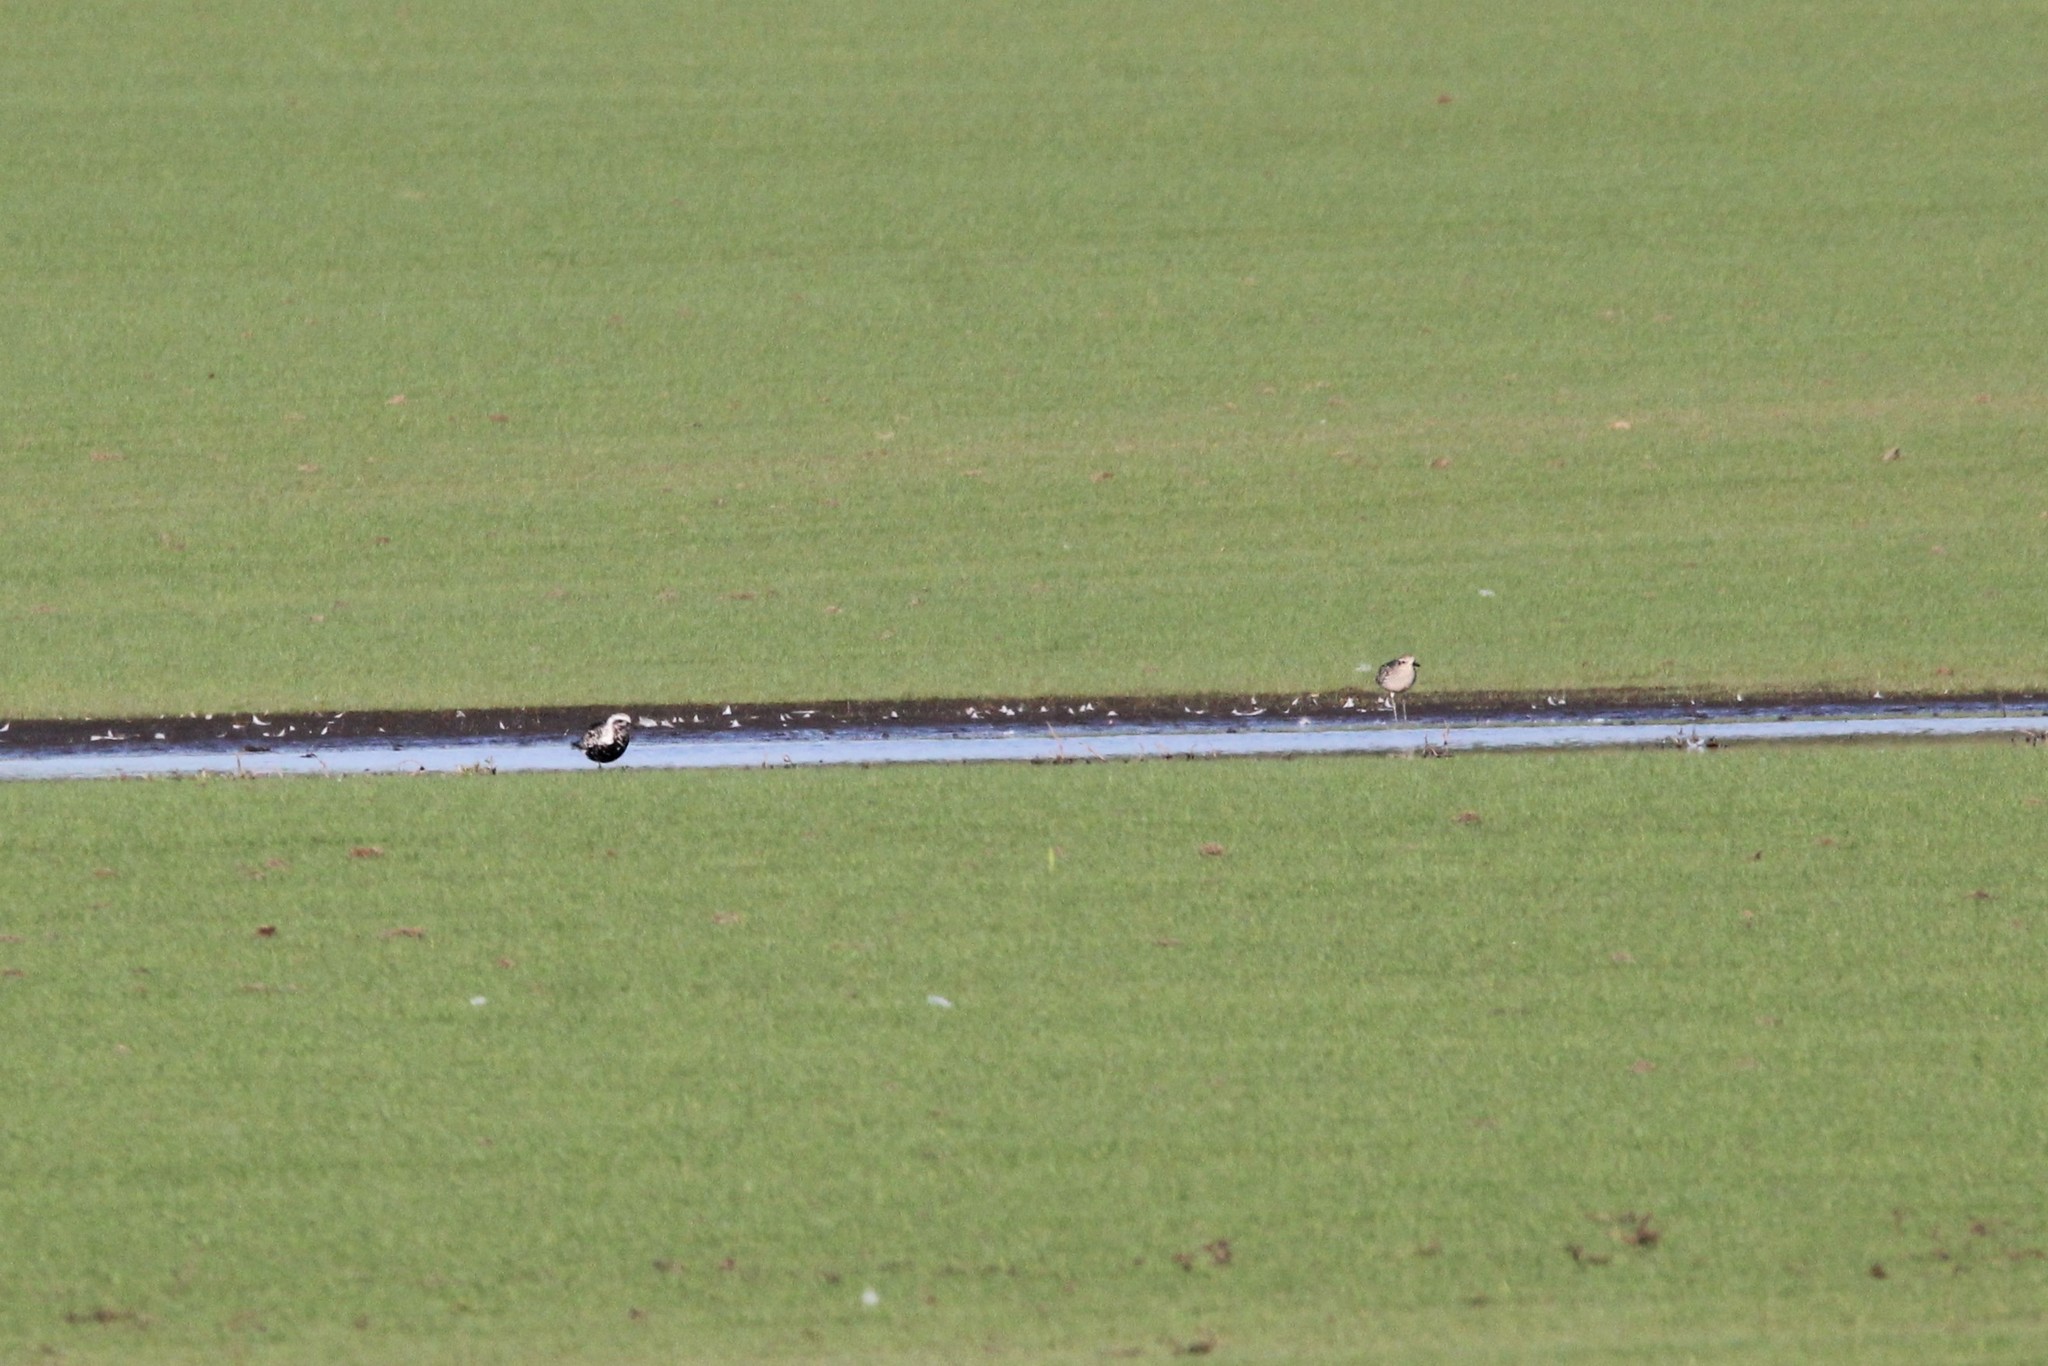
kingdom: Animalia
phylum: Chordata
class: Aves
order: Charadriiformes
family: Charadriidae
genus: Pluvialis
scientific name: Pluvialis squatarola
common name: Grey plover
